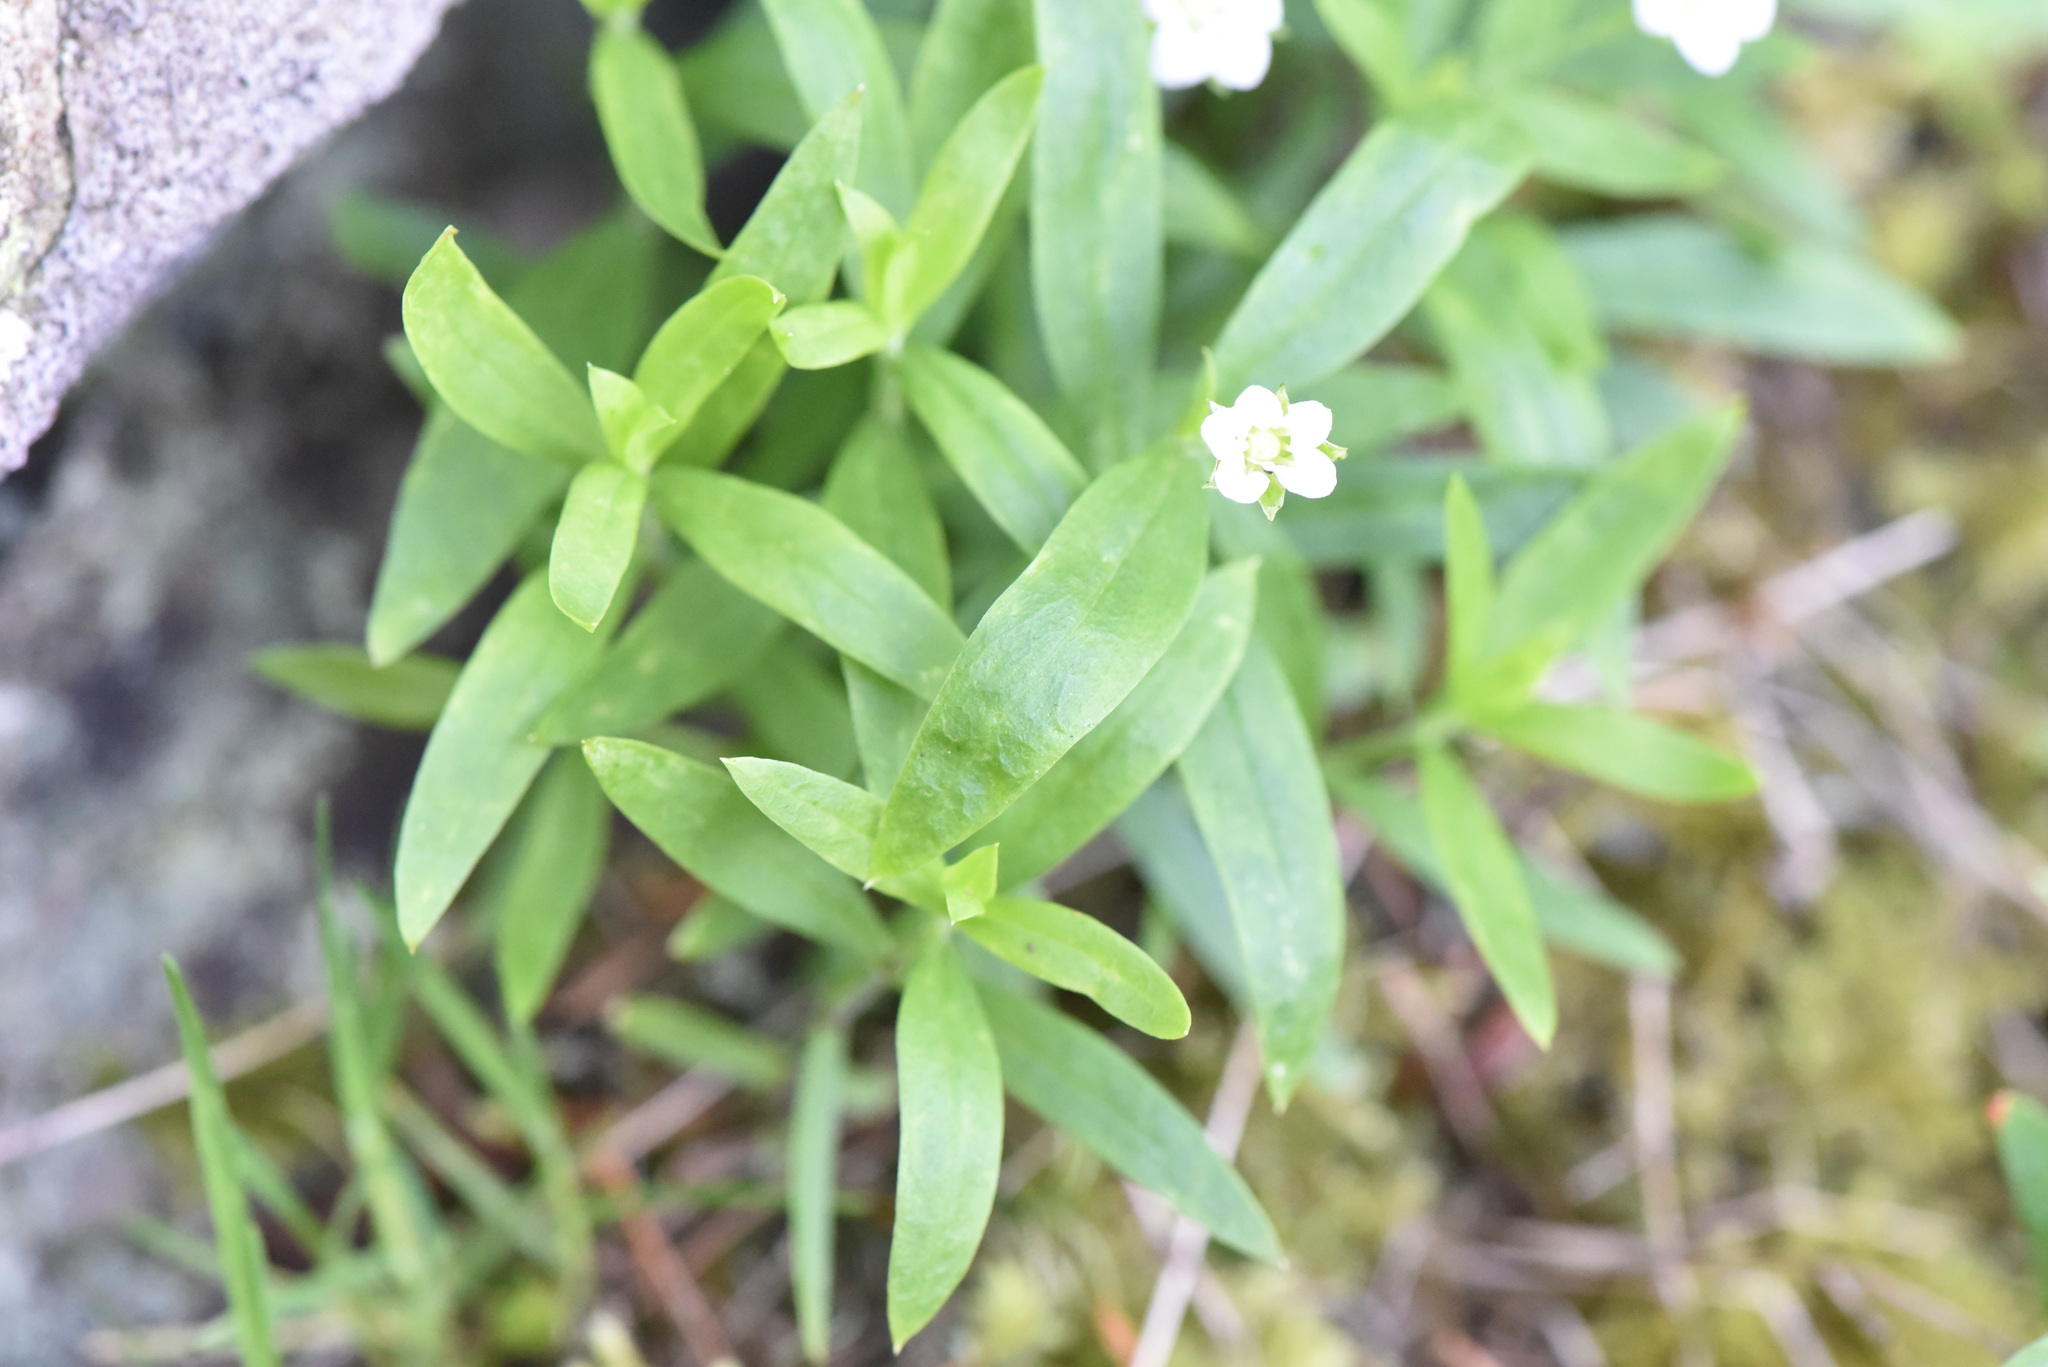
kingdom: Plantae
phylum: Tracheophyta
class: Magnoliopsida
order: Caryophyllales
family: Caryophyllaceae
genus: Moehringia
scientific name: Moehringia macrophylla
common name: Big-leaf sandwort
